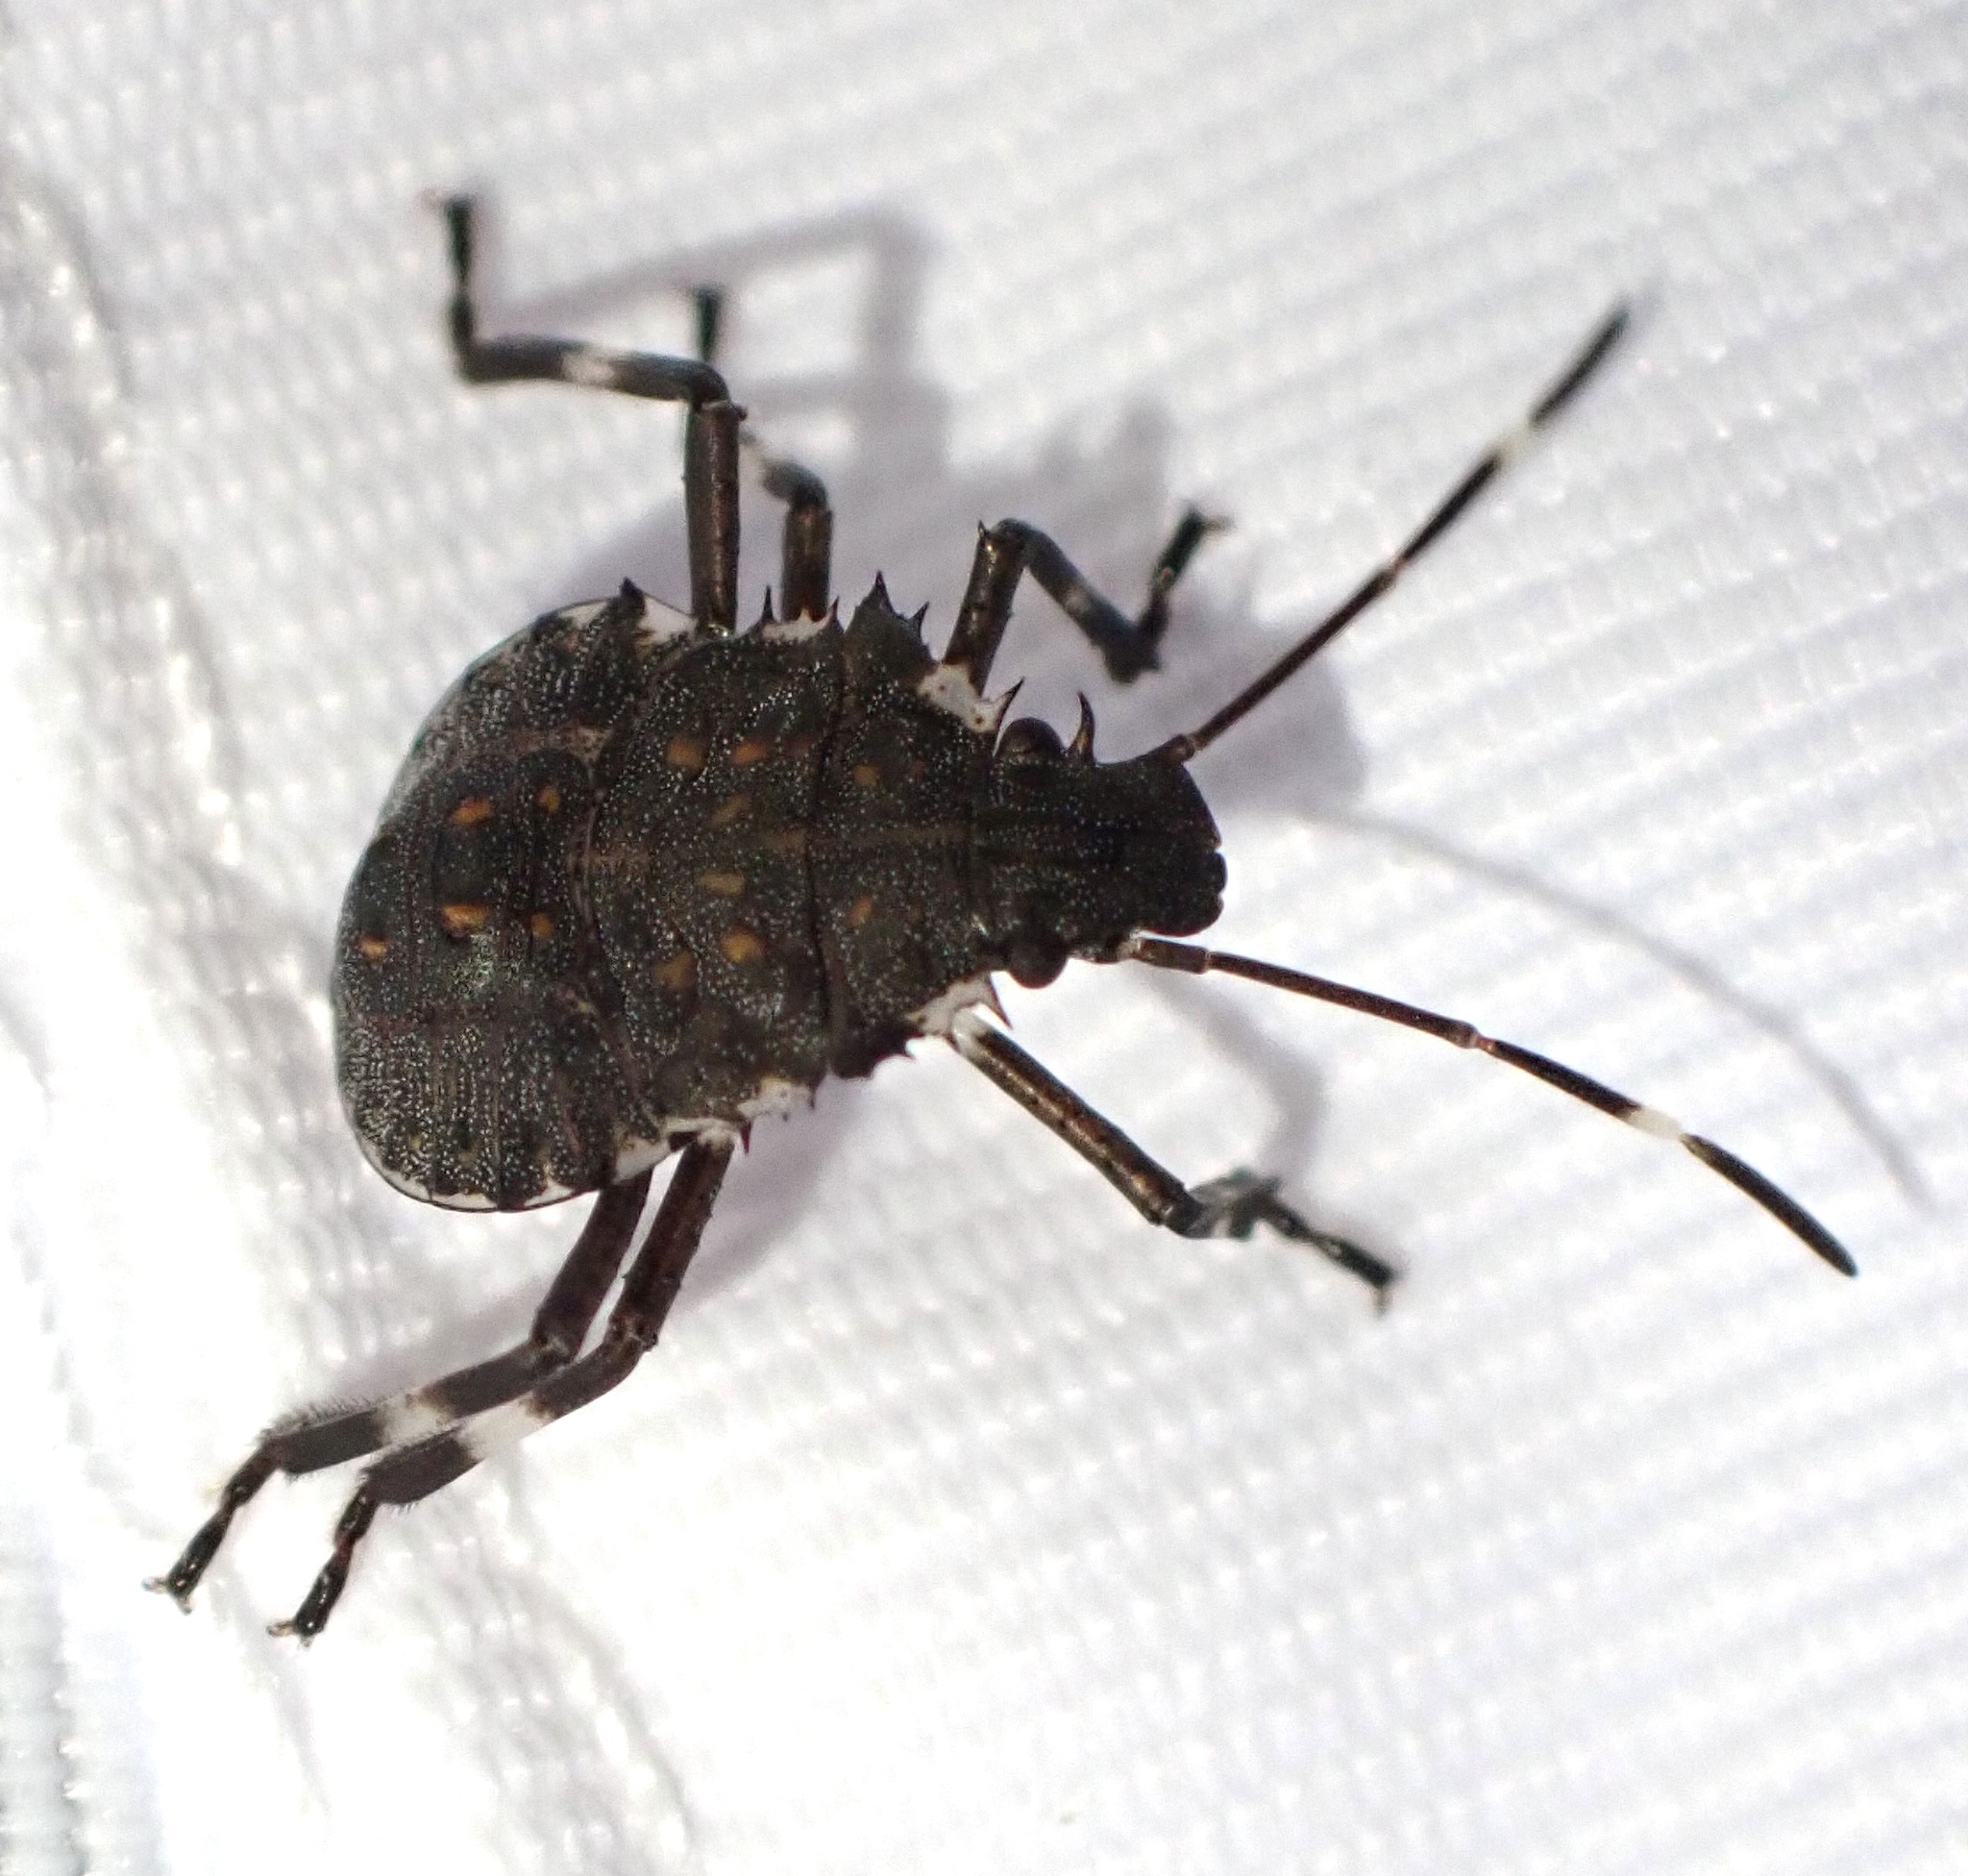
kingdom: Animalia
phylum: Arthropoda
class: Insecta
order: Hemiptera
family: Pentatomidae
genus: Halyomorpha
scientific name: Halyomorpha halys
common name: Brown marmorated stink bug
